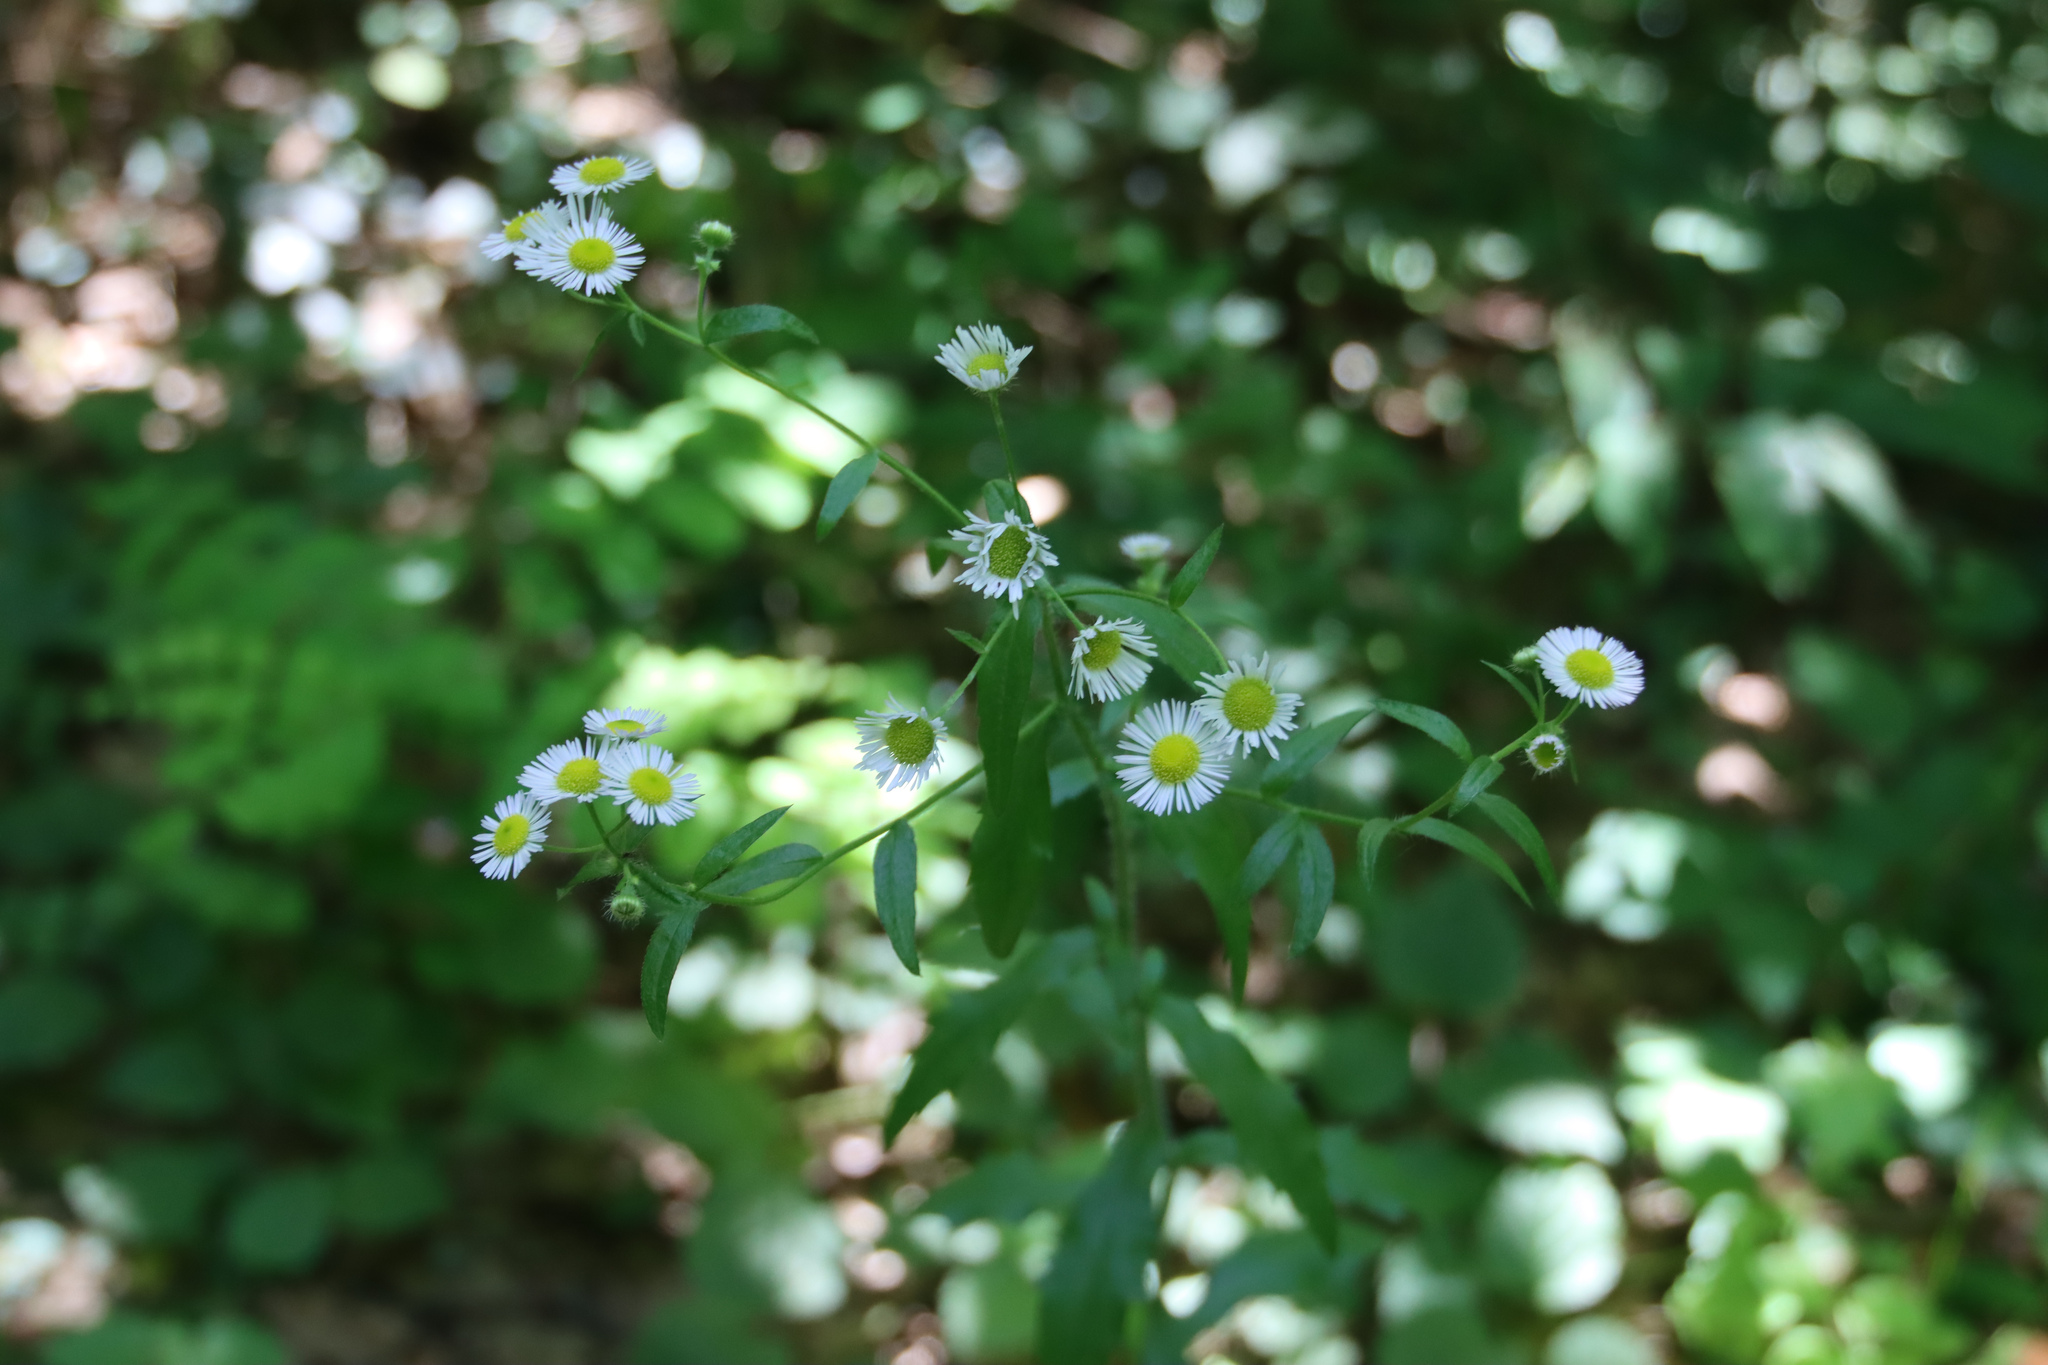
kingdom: Plantae
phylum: Tracheophyta
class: Magnoliopsida
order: Asterales
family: Asteraceae
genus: Erigeron
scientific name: Erigeron annuus
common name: Tall fleabane
